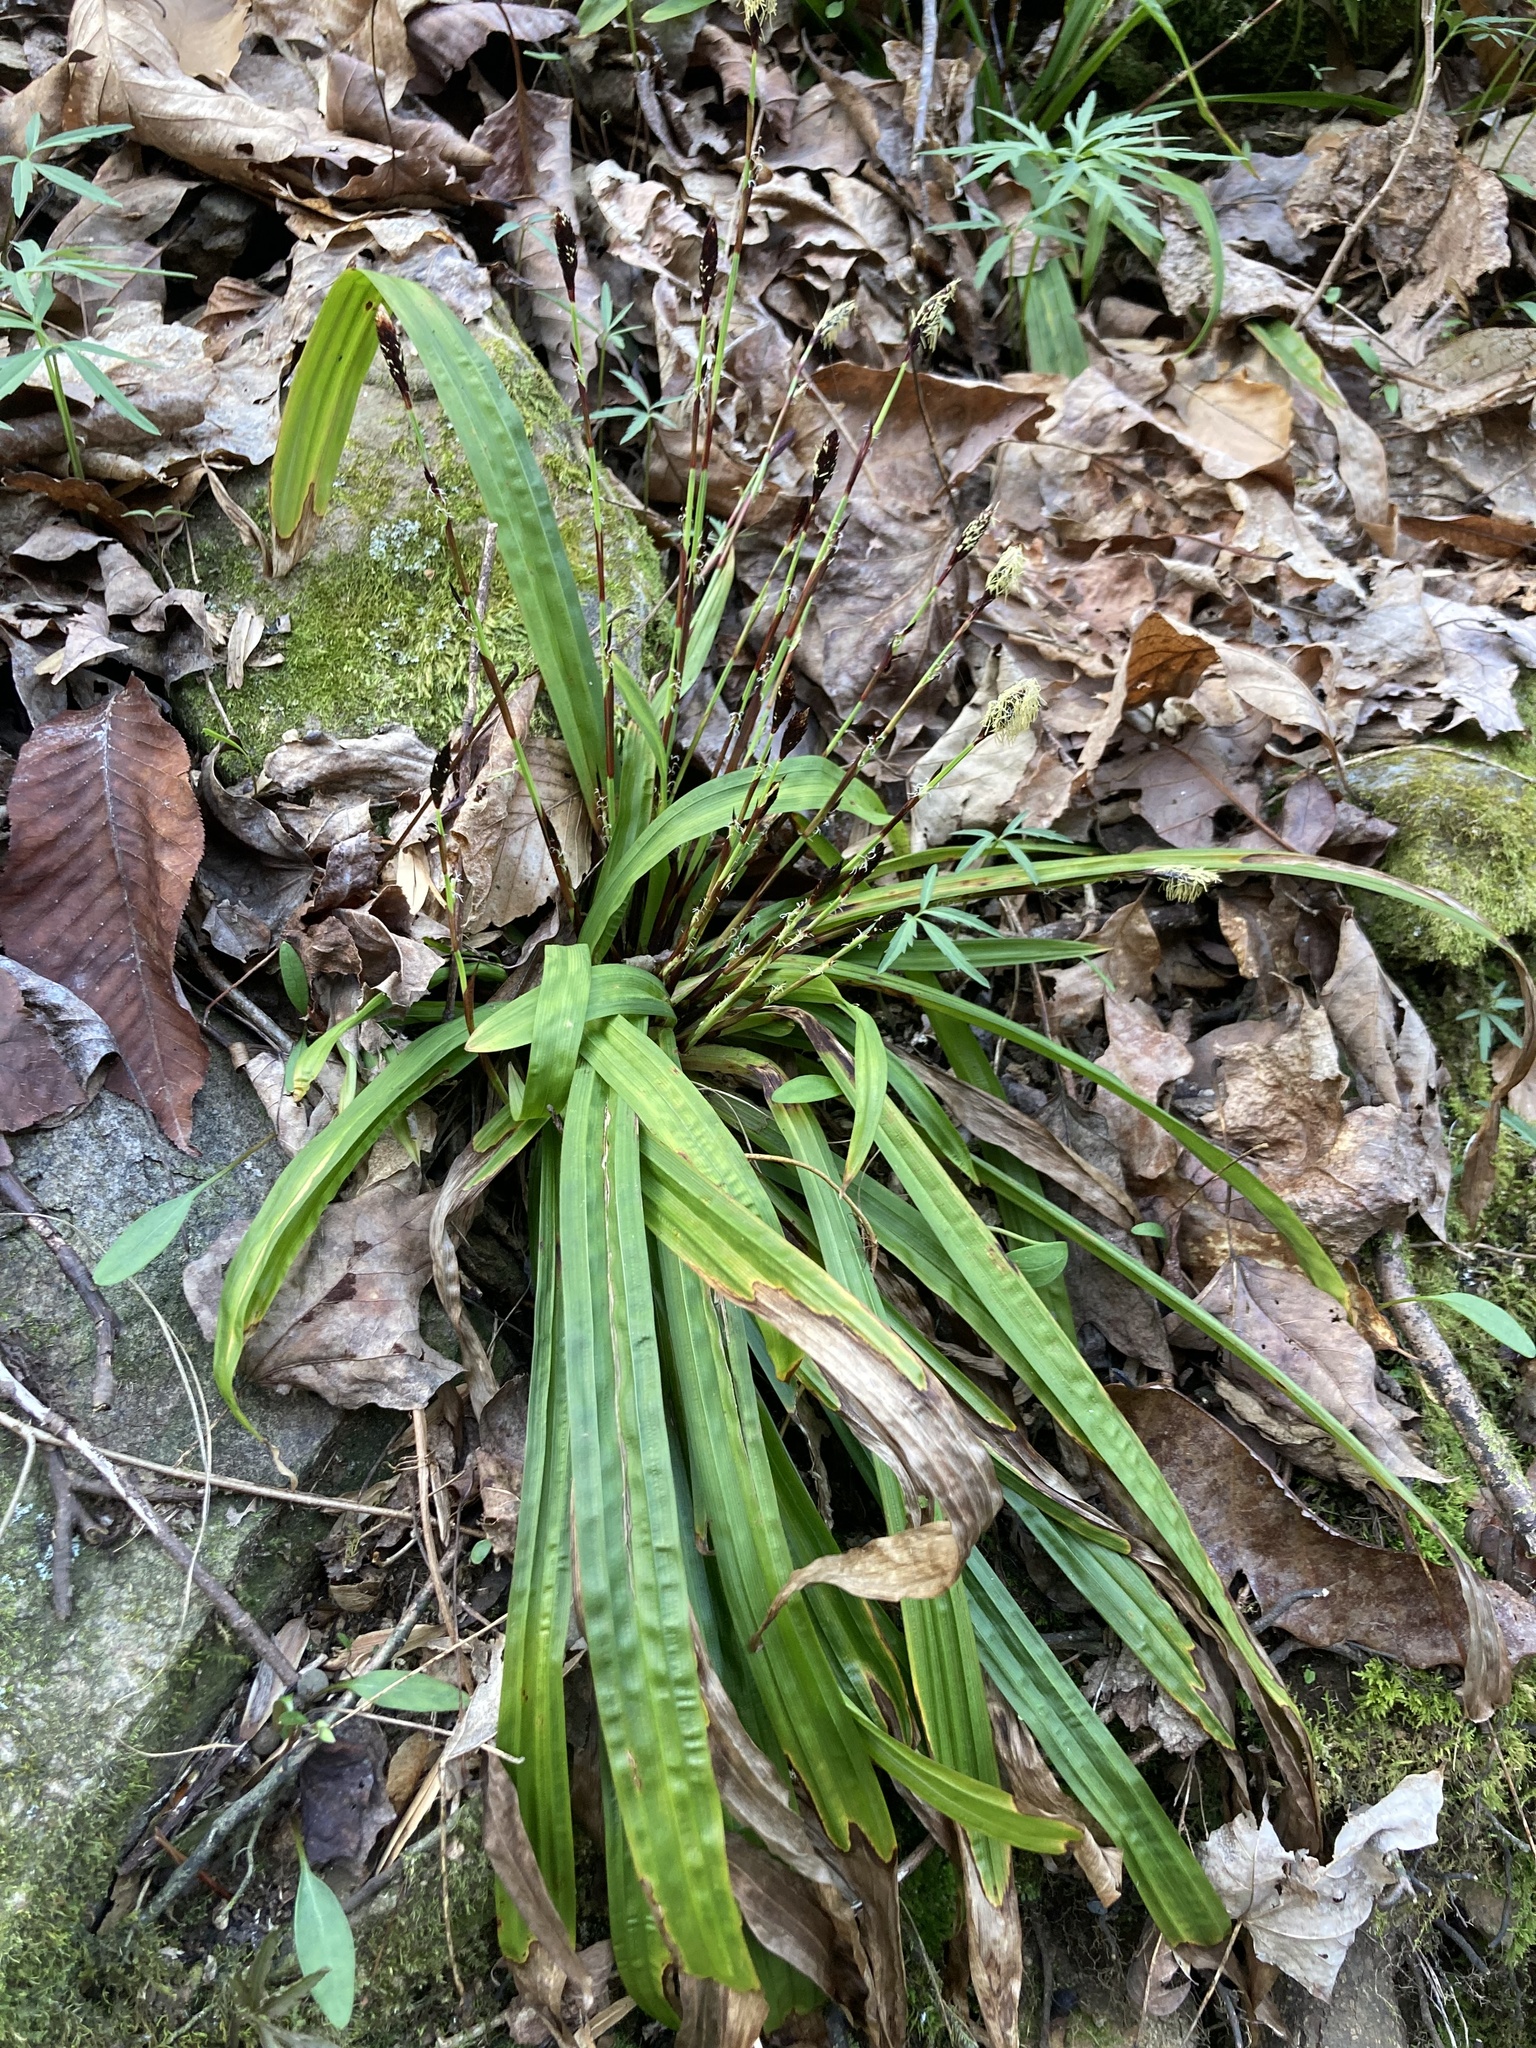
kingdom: Plantae
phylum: Tracheophyta
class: Liliopsida
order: Poales
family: Cyperaceae
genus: Carex
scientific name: Carex plantaginea
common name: Plantain-leaved sedge
